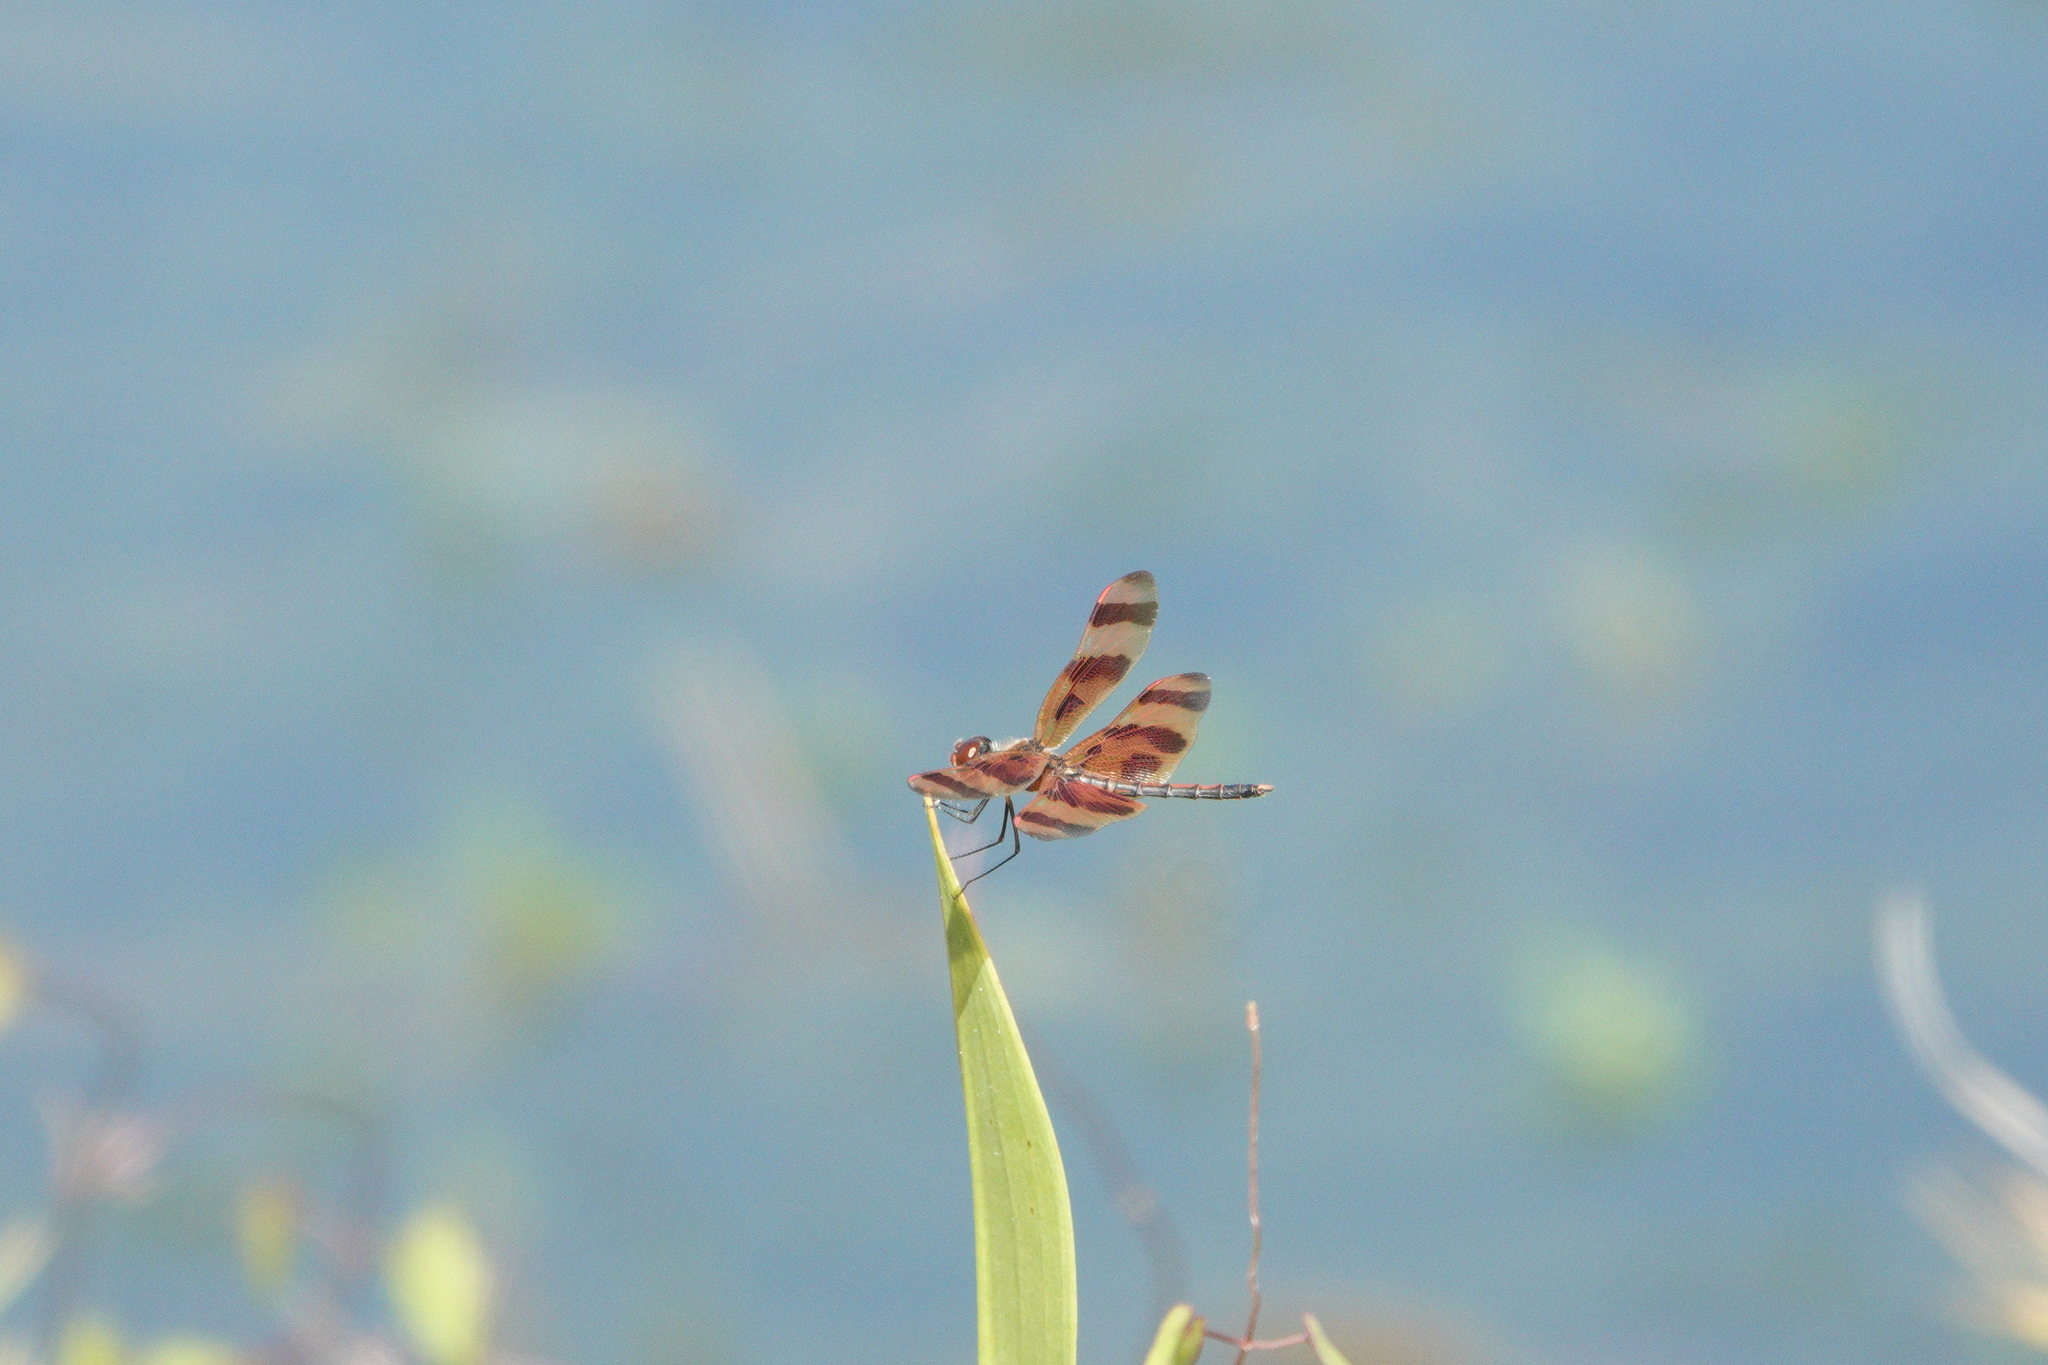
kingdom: Animalia
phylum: Arthropoda
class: Insecta
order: Odonata
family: Libellulidae
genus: Celithemis
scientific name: Celithemis eponina
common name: Halloween pennant
